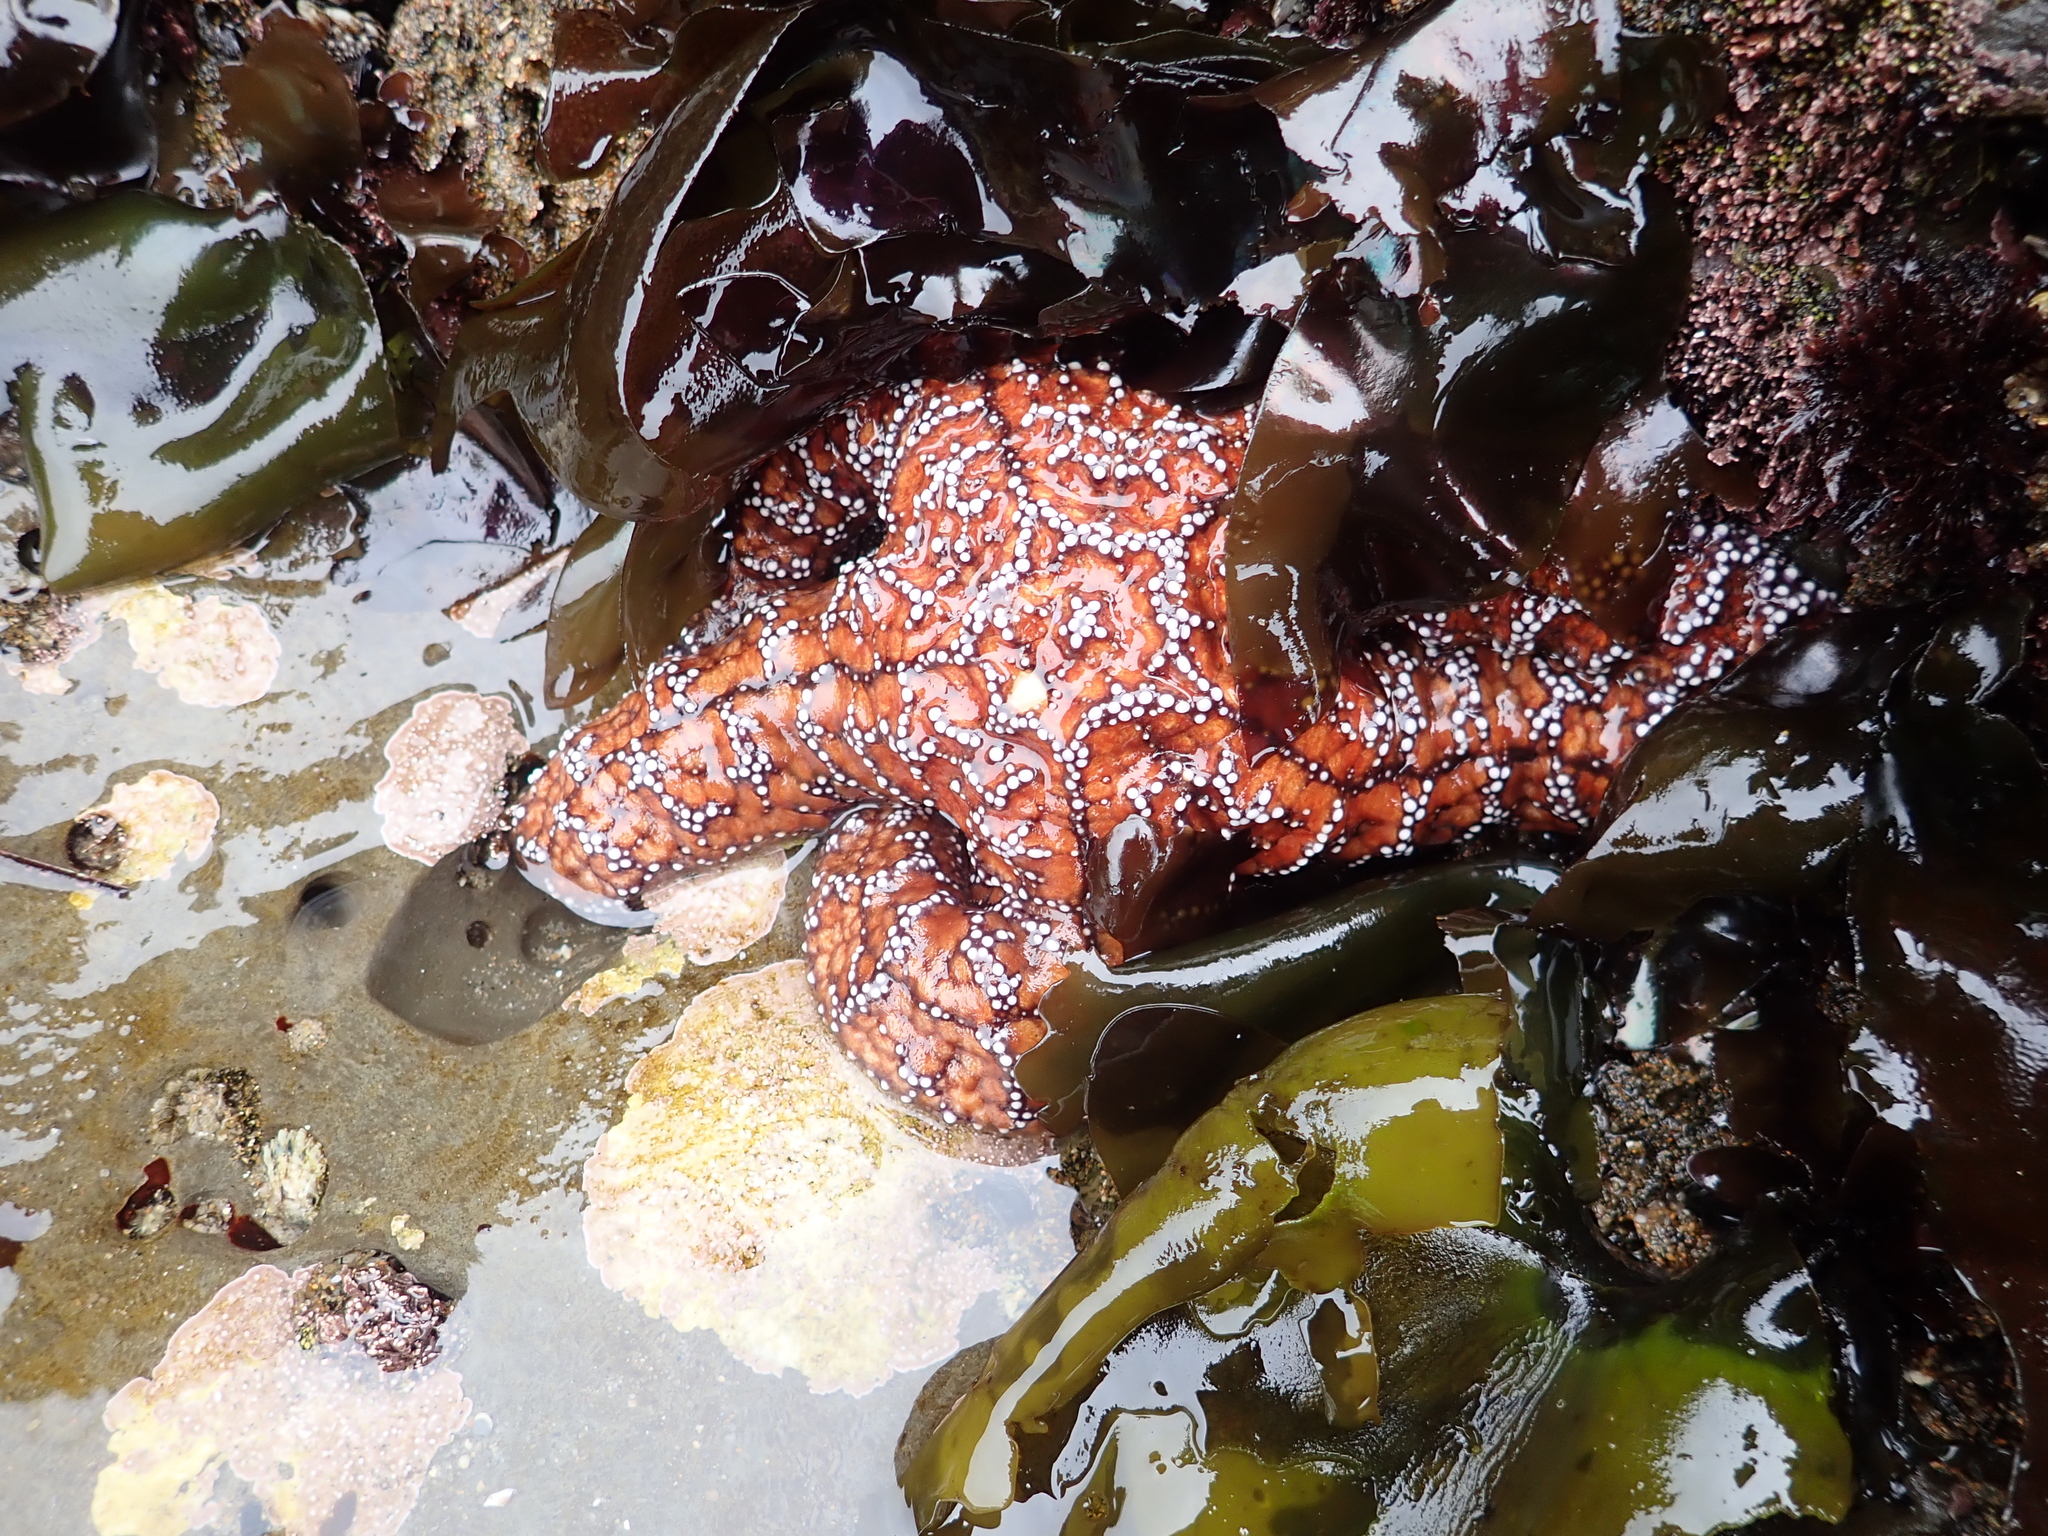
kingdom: Animalia
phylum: Echinodermata
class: Asteroidea
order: Forcipulatida
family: Asteriidae
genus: Pisaster
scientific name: Pisaster ochraceus
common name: Ochre stars
